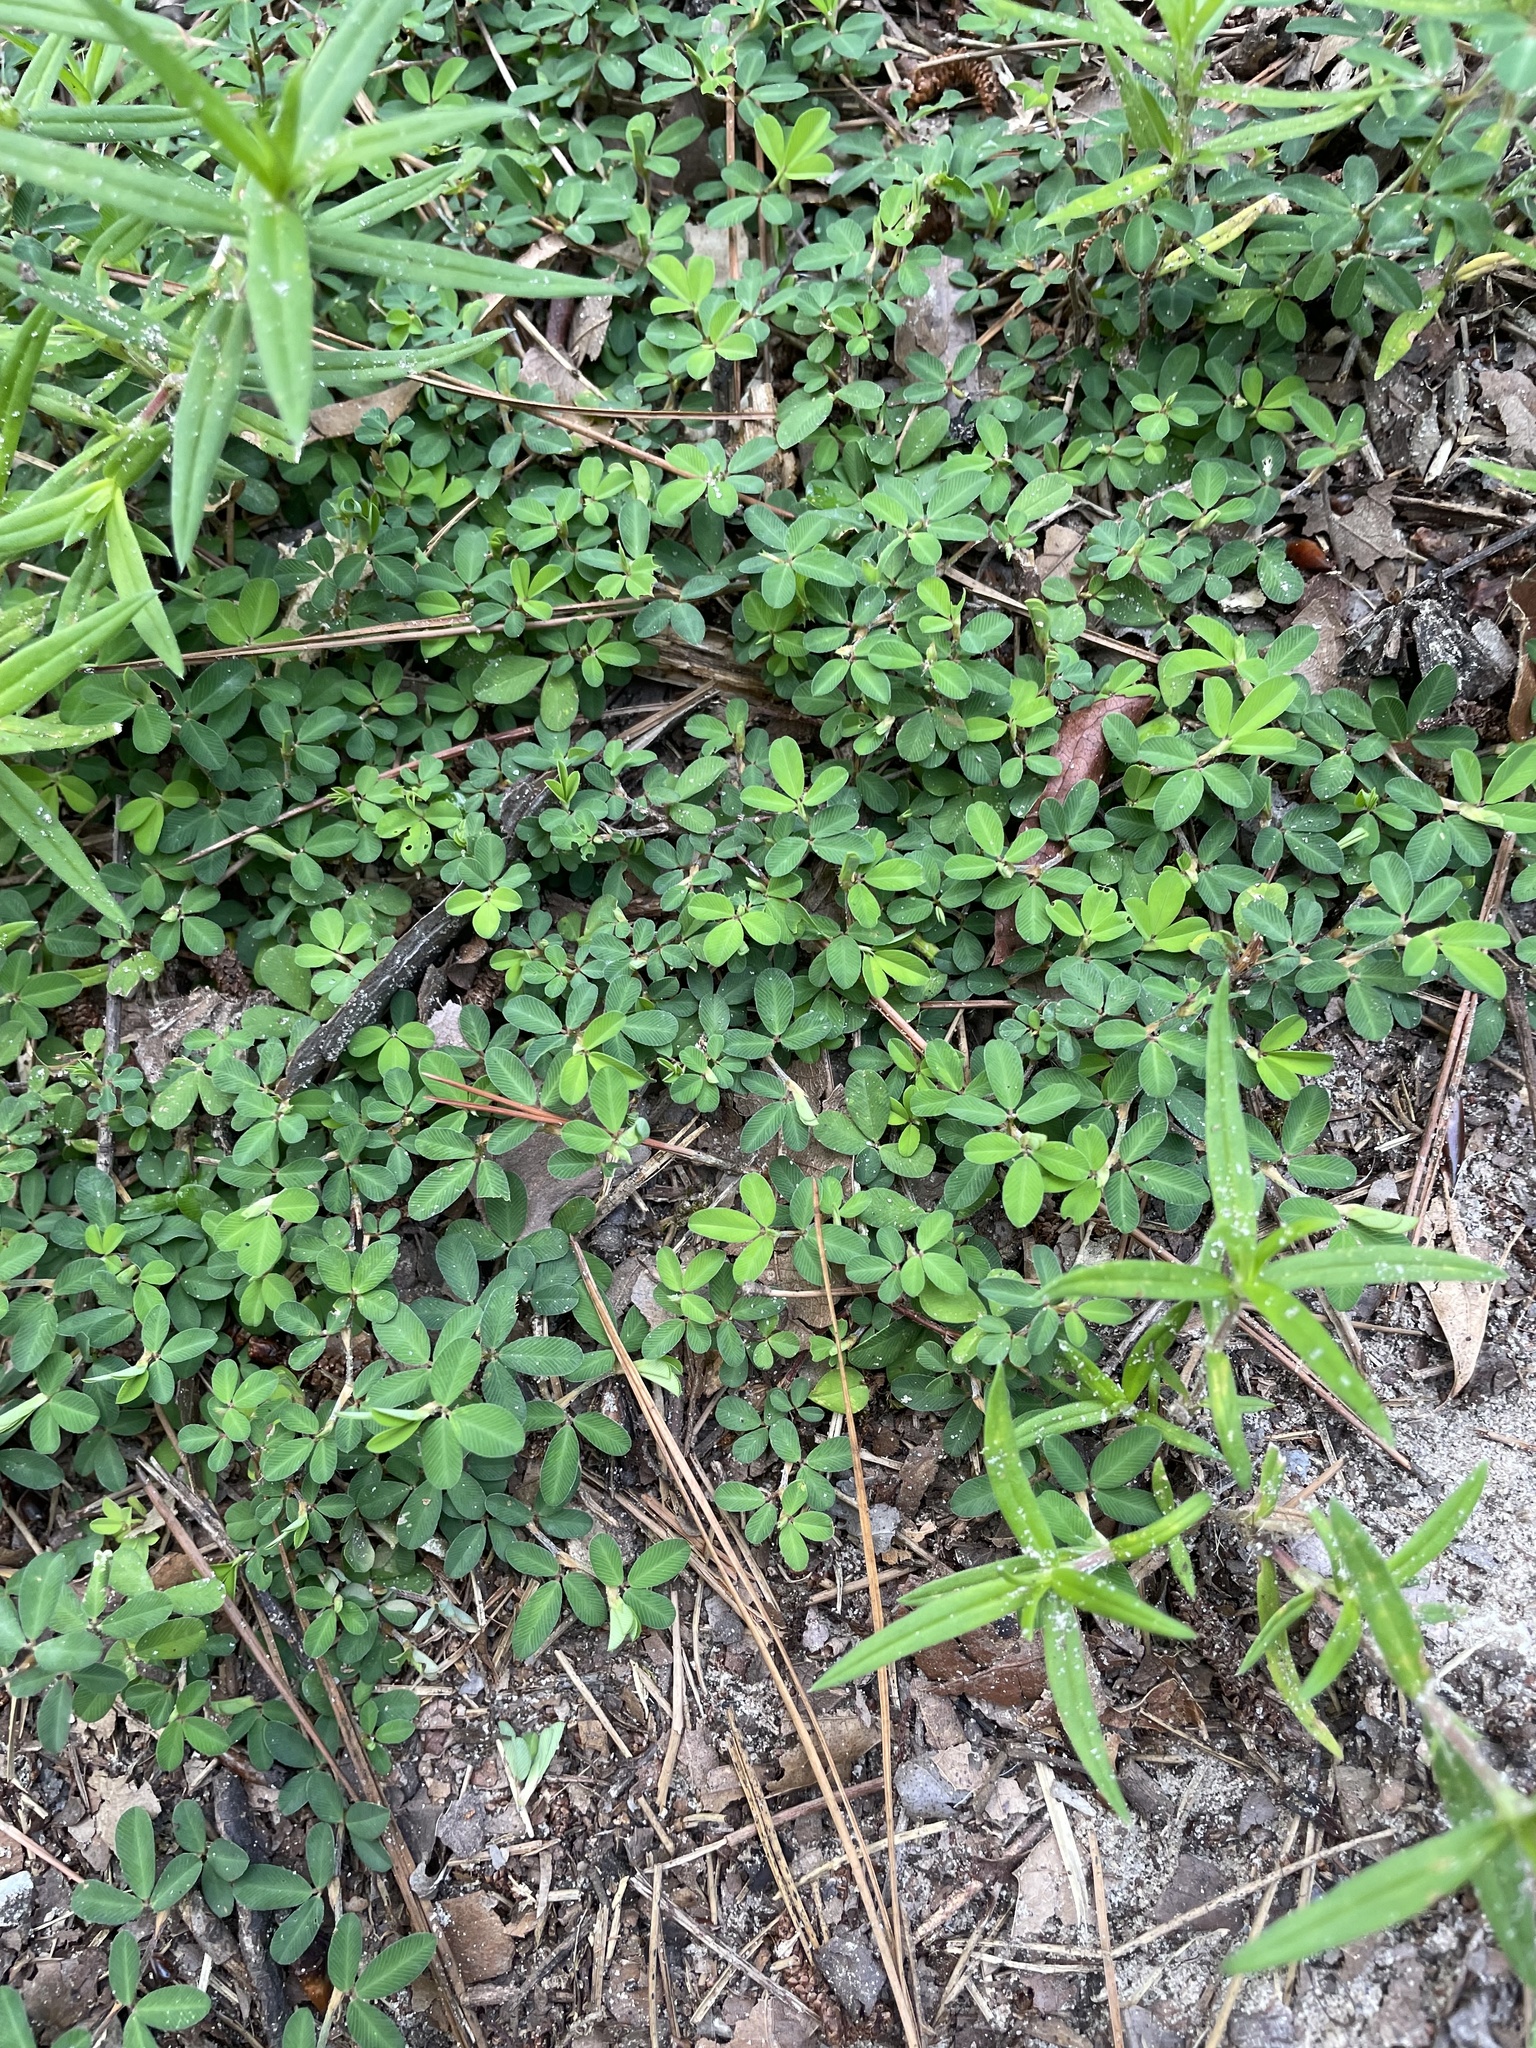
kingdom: Plantae
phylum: Tracheophyta
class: Magnoliopsida
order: Fabales
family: Fabaceae
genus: Kummerowia
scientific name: Kummerowia striata
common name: Japanese clover
